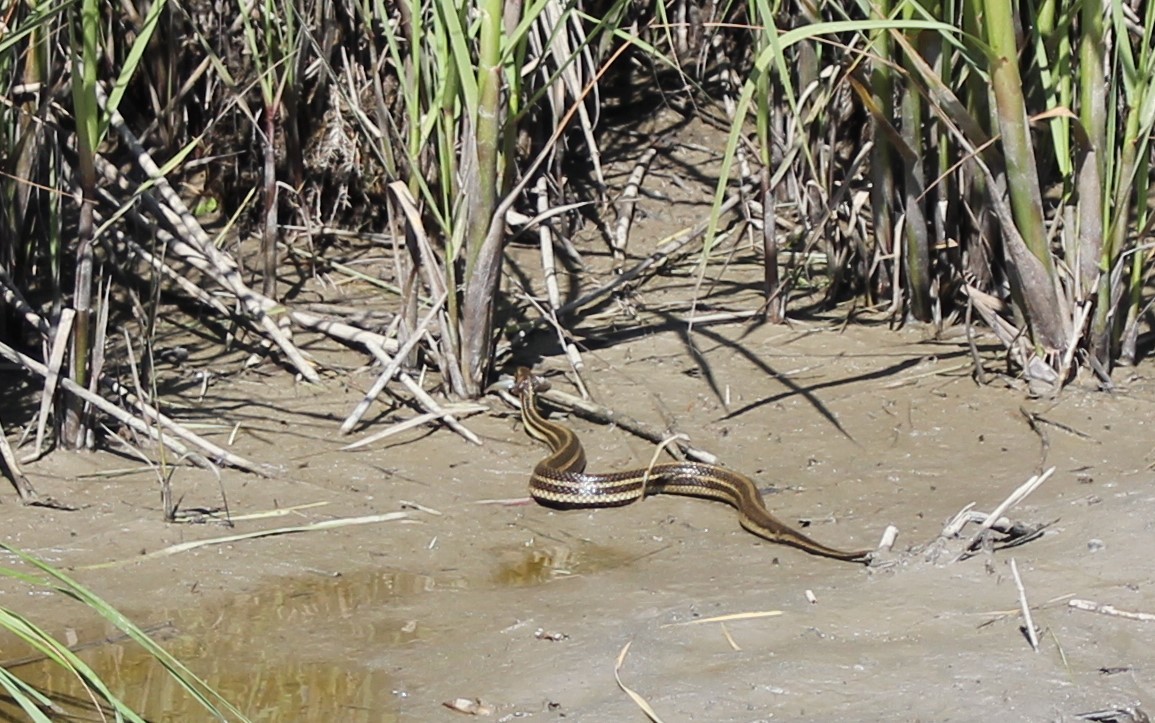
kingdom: Animalia
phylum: Chordata
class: Squamata
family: Colubridae
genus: Nerodia
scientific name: Nerodia clarkii
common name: Atlantic saltmarsh snake
